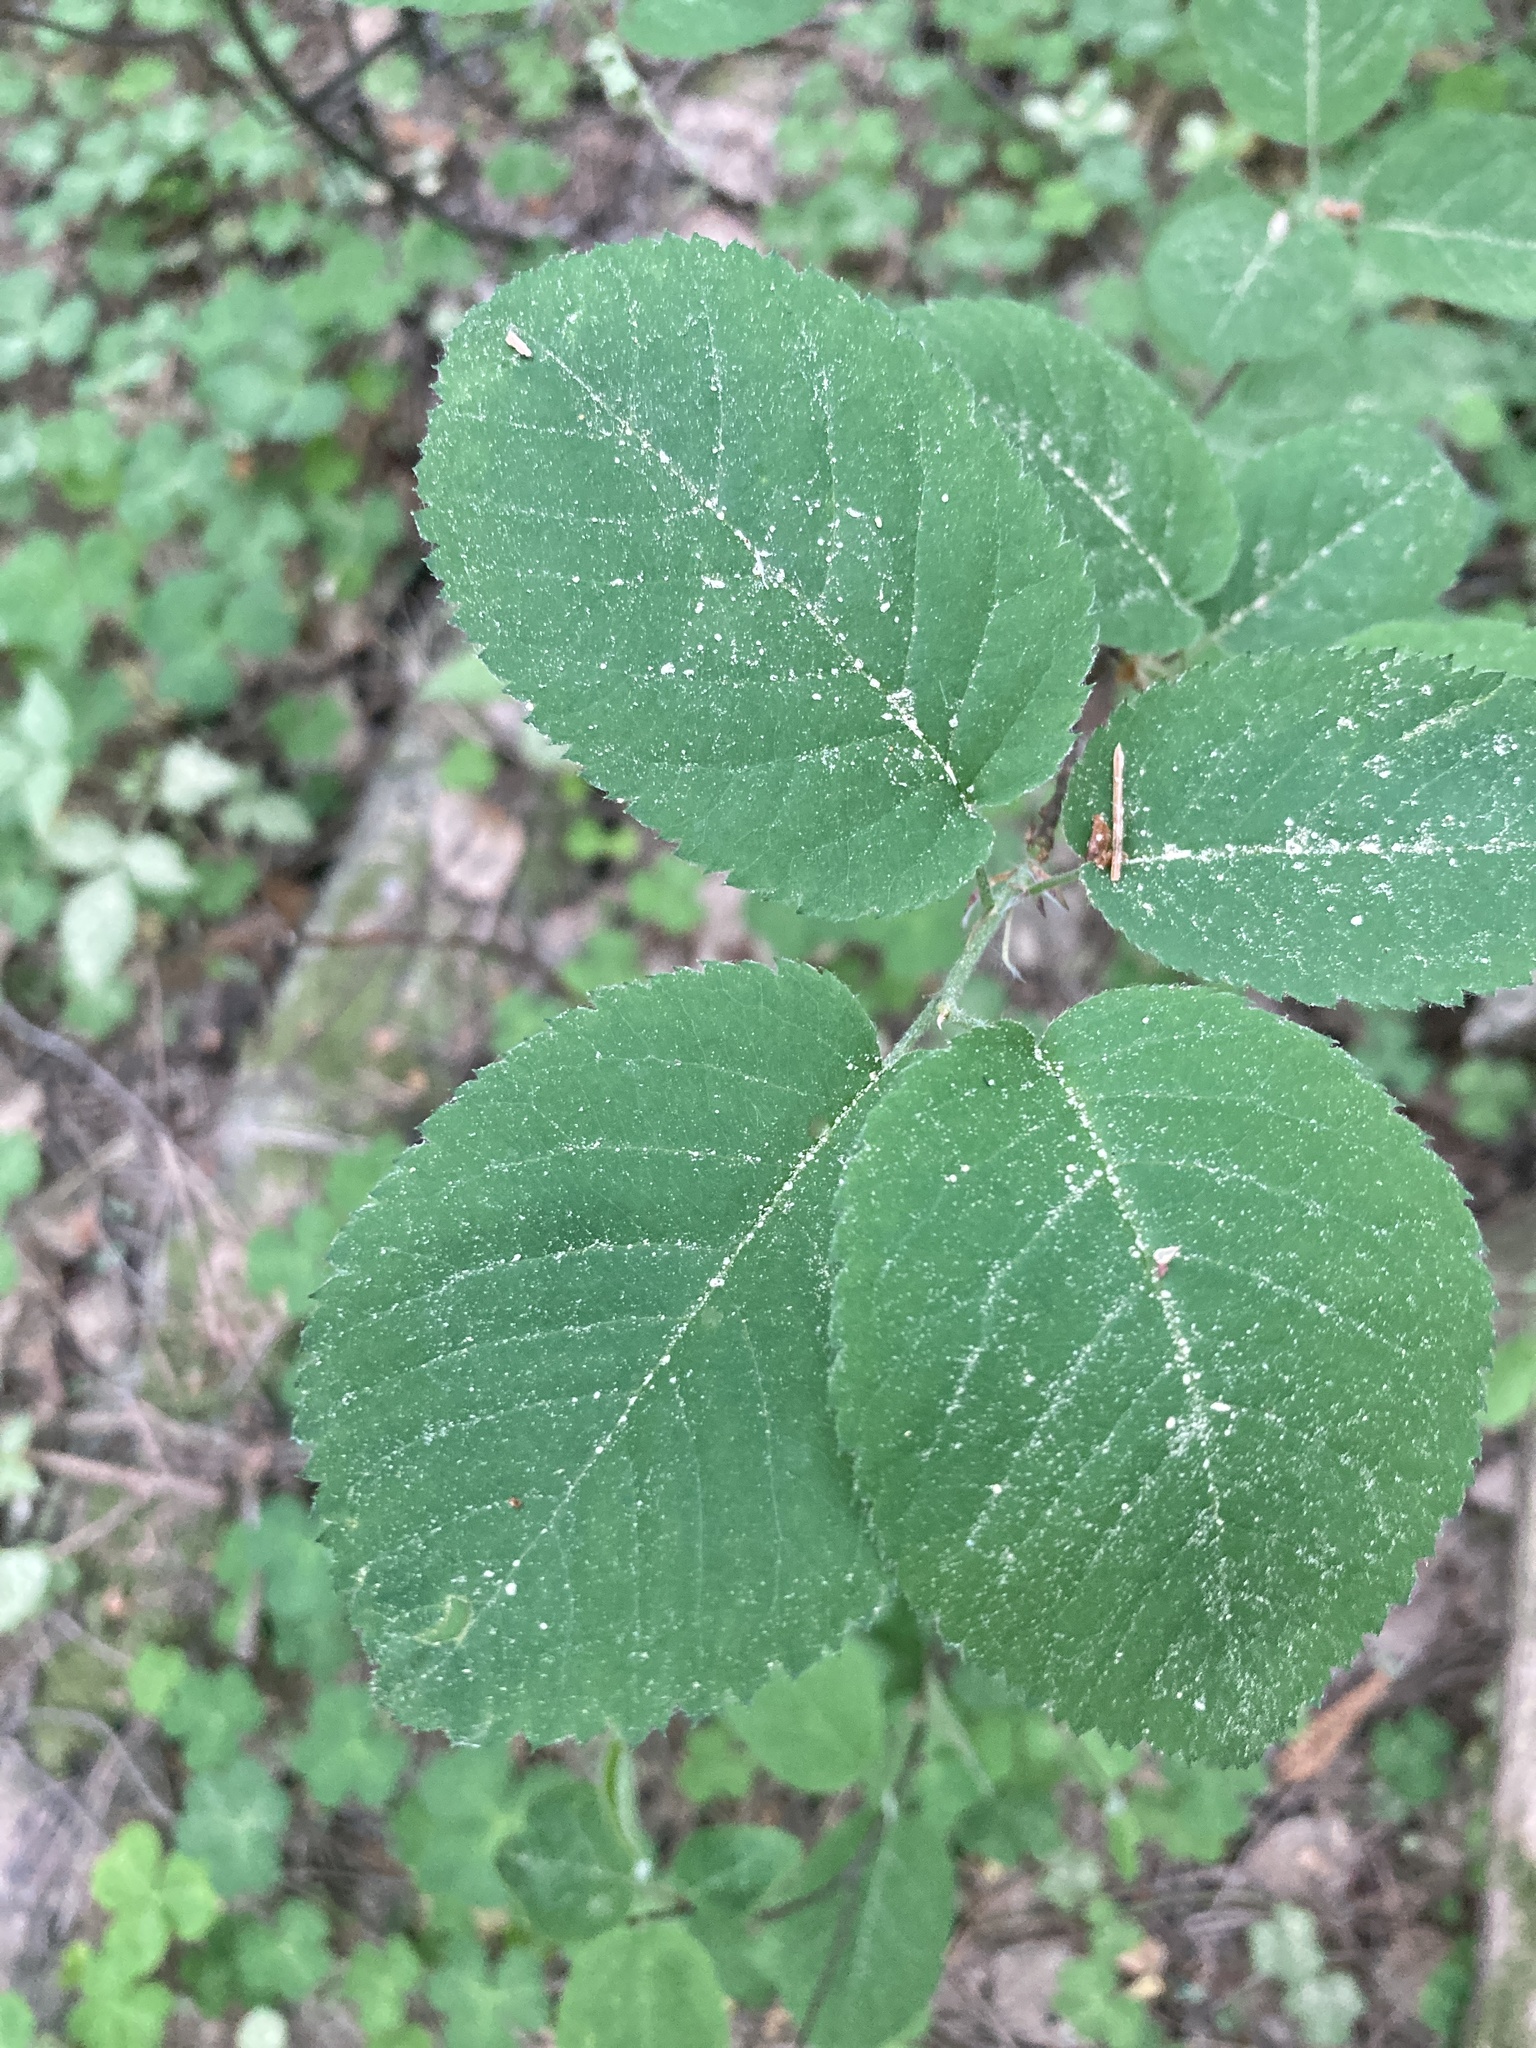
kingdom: Plantae
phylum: Tracheophyta
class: Magnoliopsida
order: Rosales
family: Rosaceae
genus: Amelanchier
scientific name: Amelanchier
